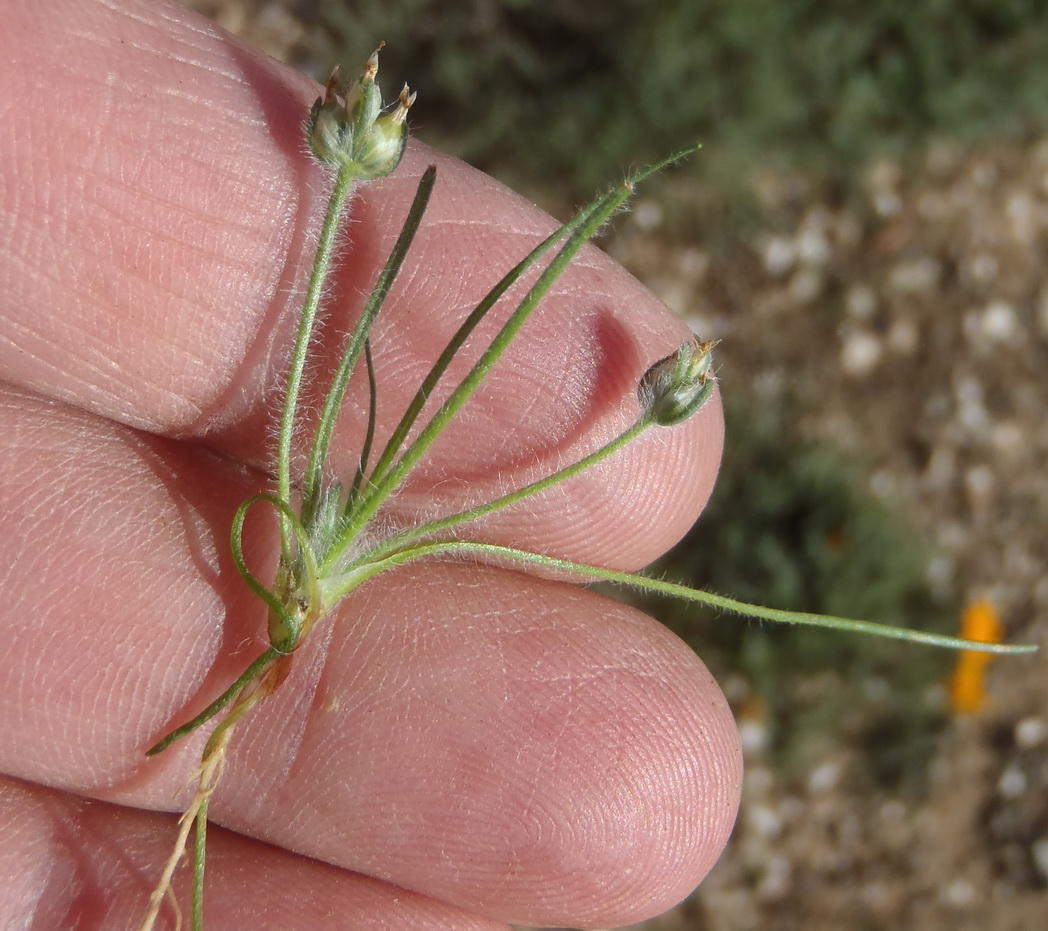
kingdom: Plantae
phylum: Tracheophyta
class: Magnoliopsida
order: Lamiales
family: Plantaginaceae
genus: Plantago
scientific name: Plantago cafra
